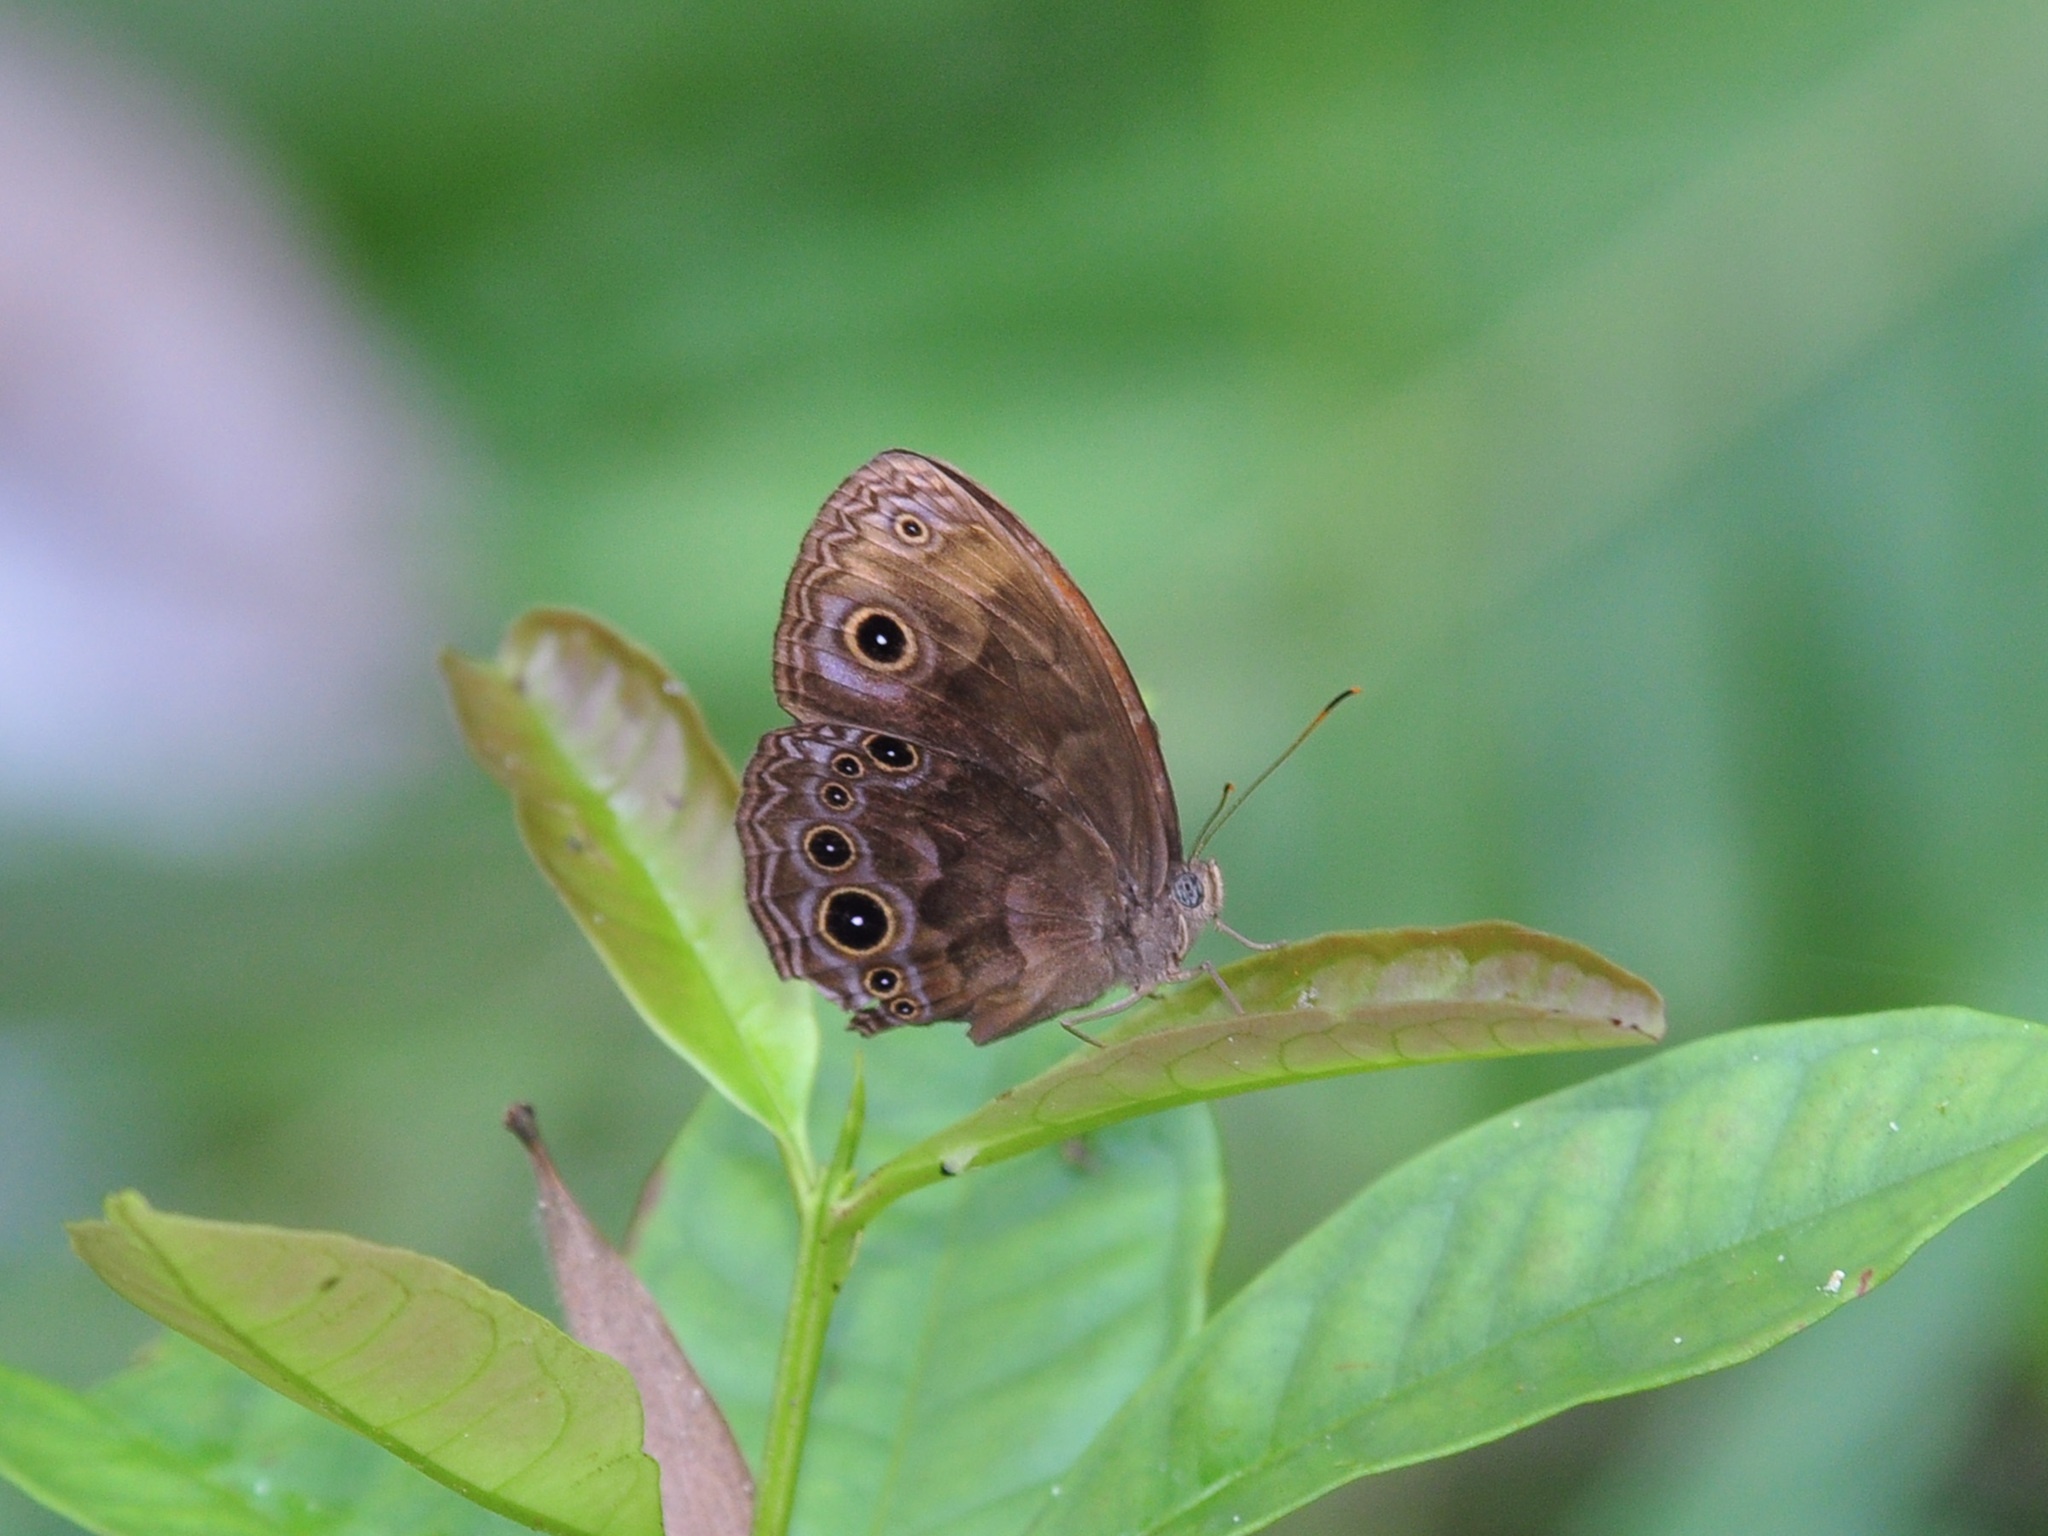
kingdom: Animalia
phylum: Arthropoda
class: Insecta
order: Lepidoptera
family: Nymphalidae
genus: Mycalesis
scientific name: Mycalesis maianeas
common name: Bandless bushbrown
